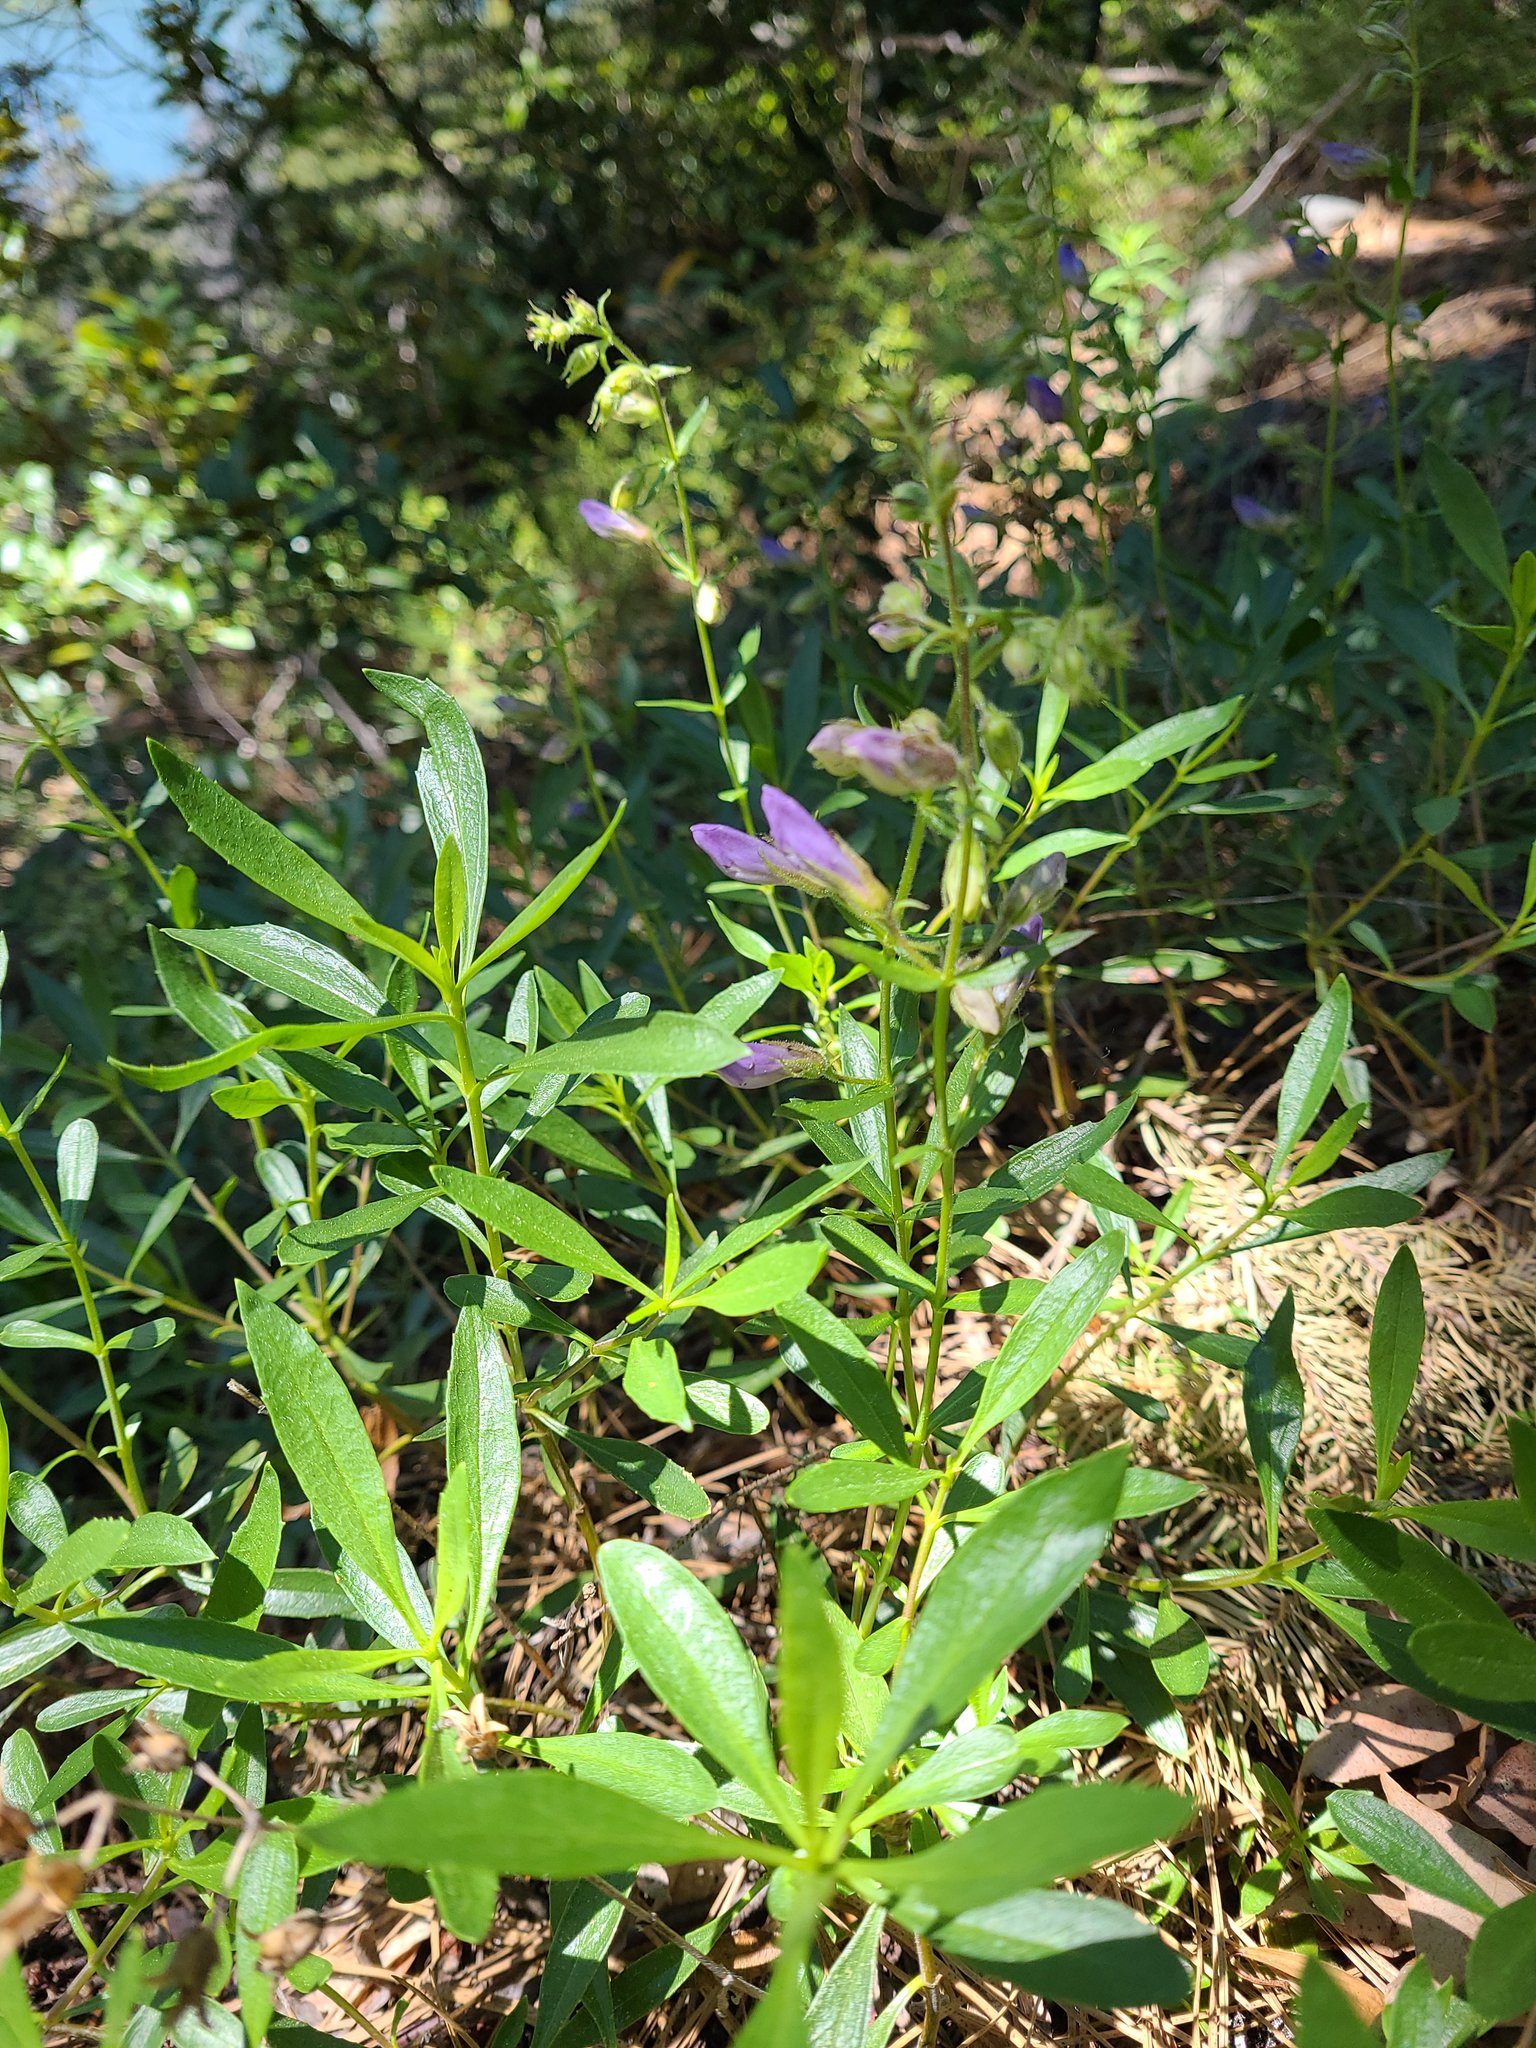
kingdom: Plantae
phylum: Tracheophyta
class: Magnoliopsida
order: Lamiales
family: Plantaginaceae
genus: Penstemon
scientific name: Penstemon fruticosus
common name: Bush penstemon
